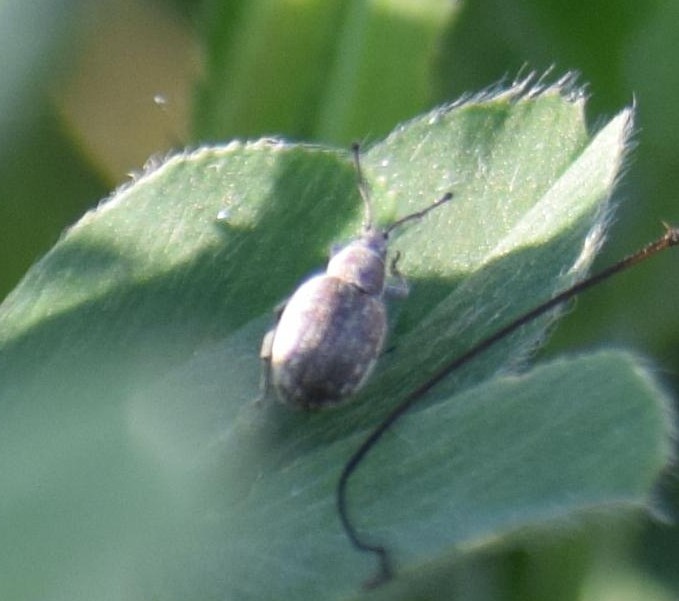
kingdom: Animalia
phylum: Arthropoda
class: Insecta
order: Coleoptera
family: Curculionidae
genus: Peritelus
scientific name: Peritelus sphaeroides
